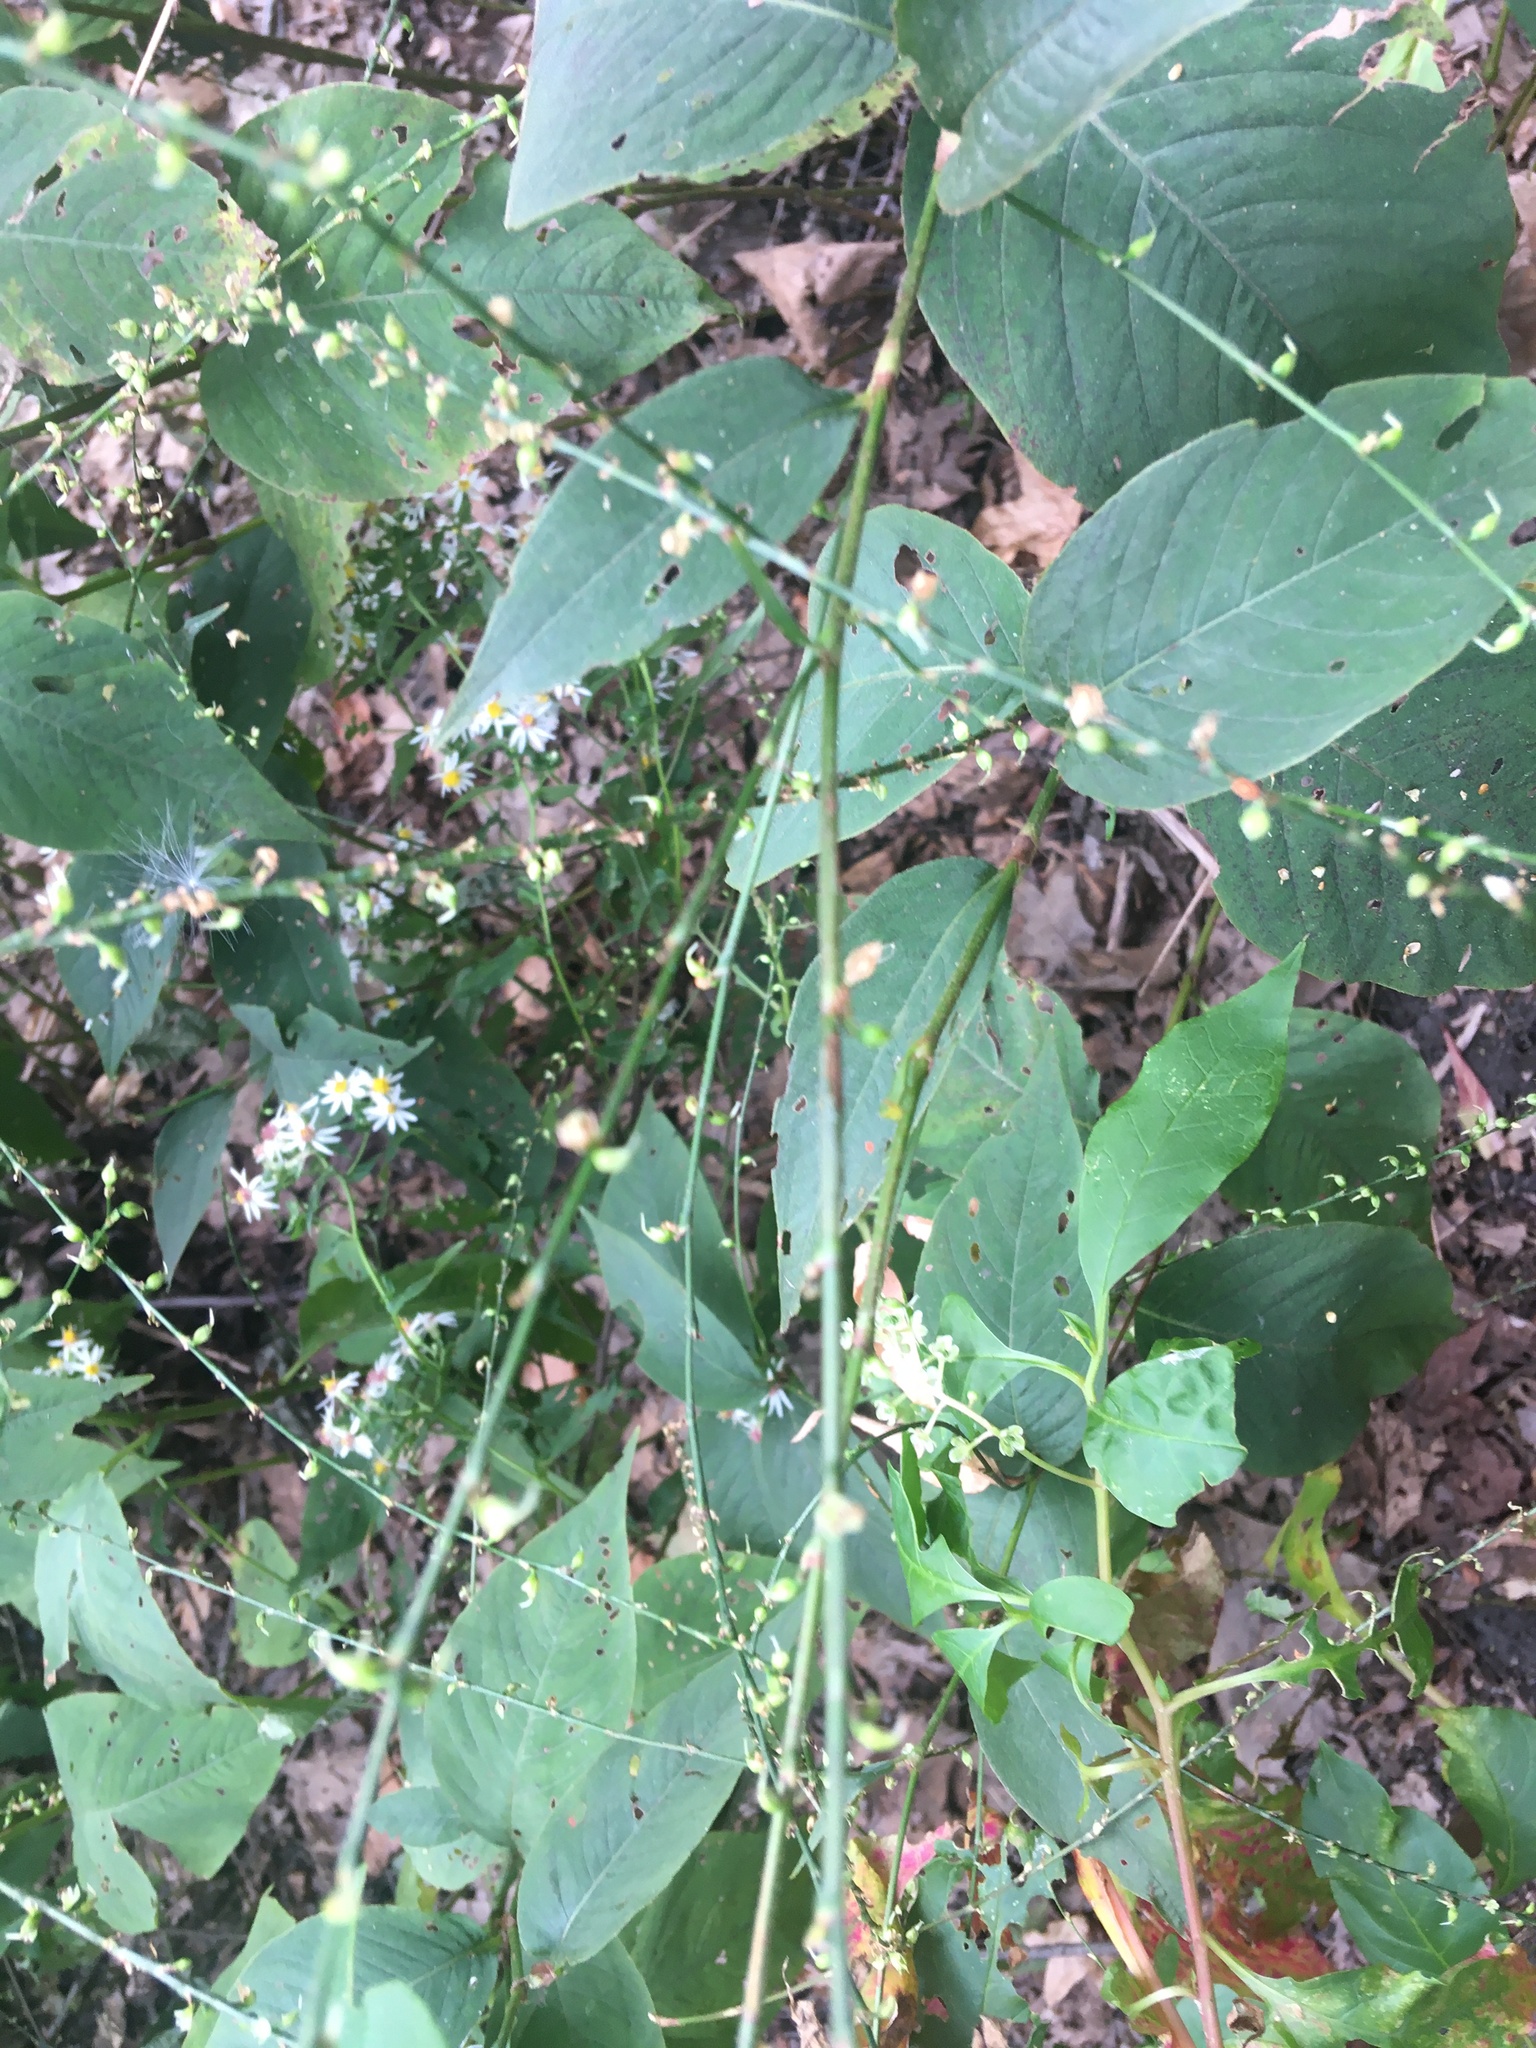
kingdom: Plantae
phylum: Tracheophyta
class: Magnoliopsida
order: Caryophyllales
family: Polygonaceae
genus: Persicaria
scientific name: Persicaria virginiana
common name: Jumpseed
